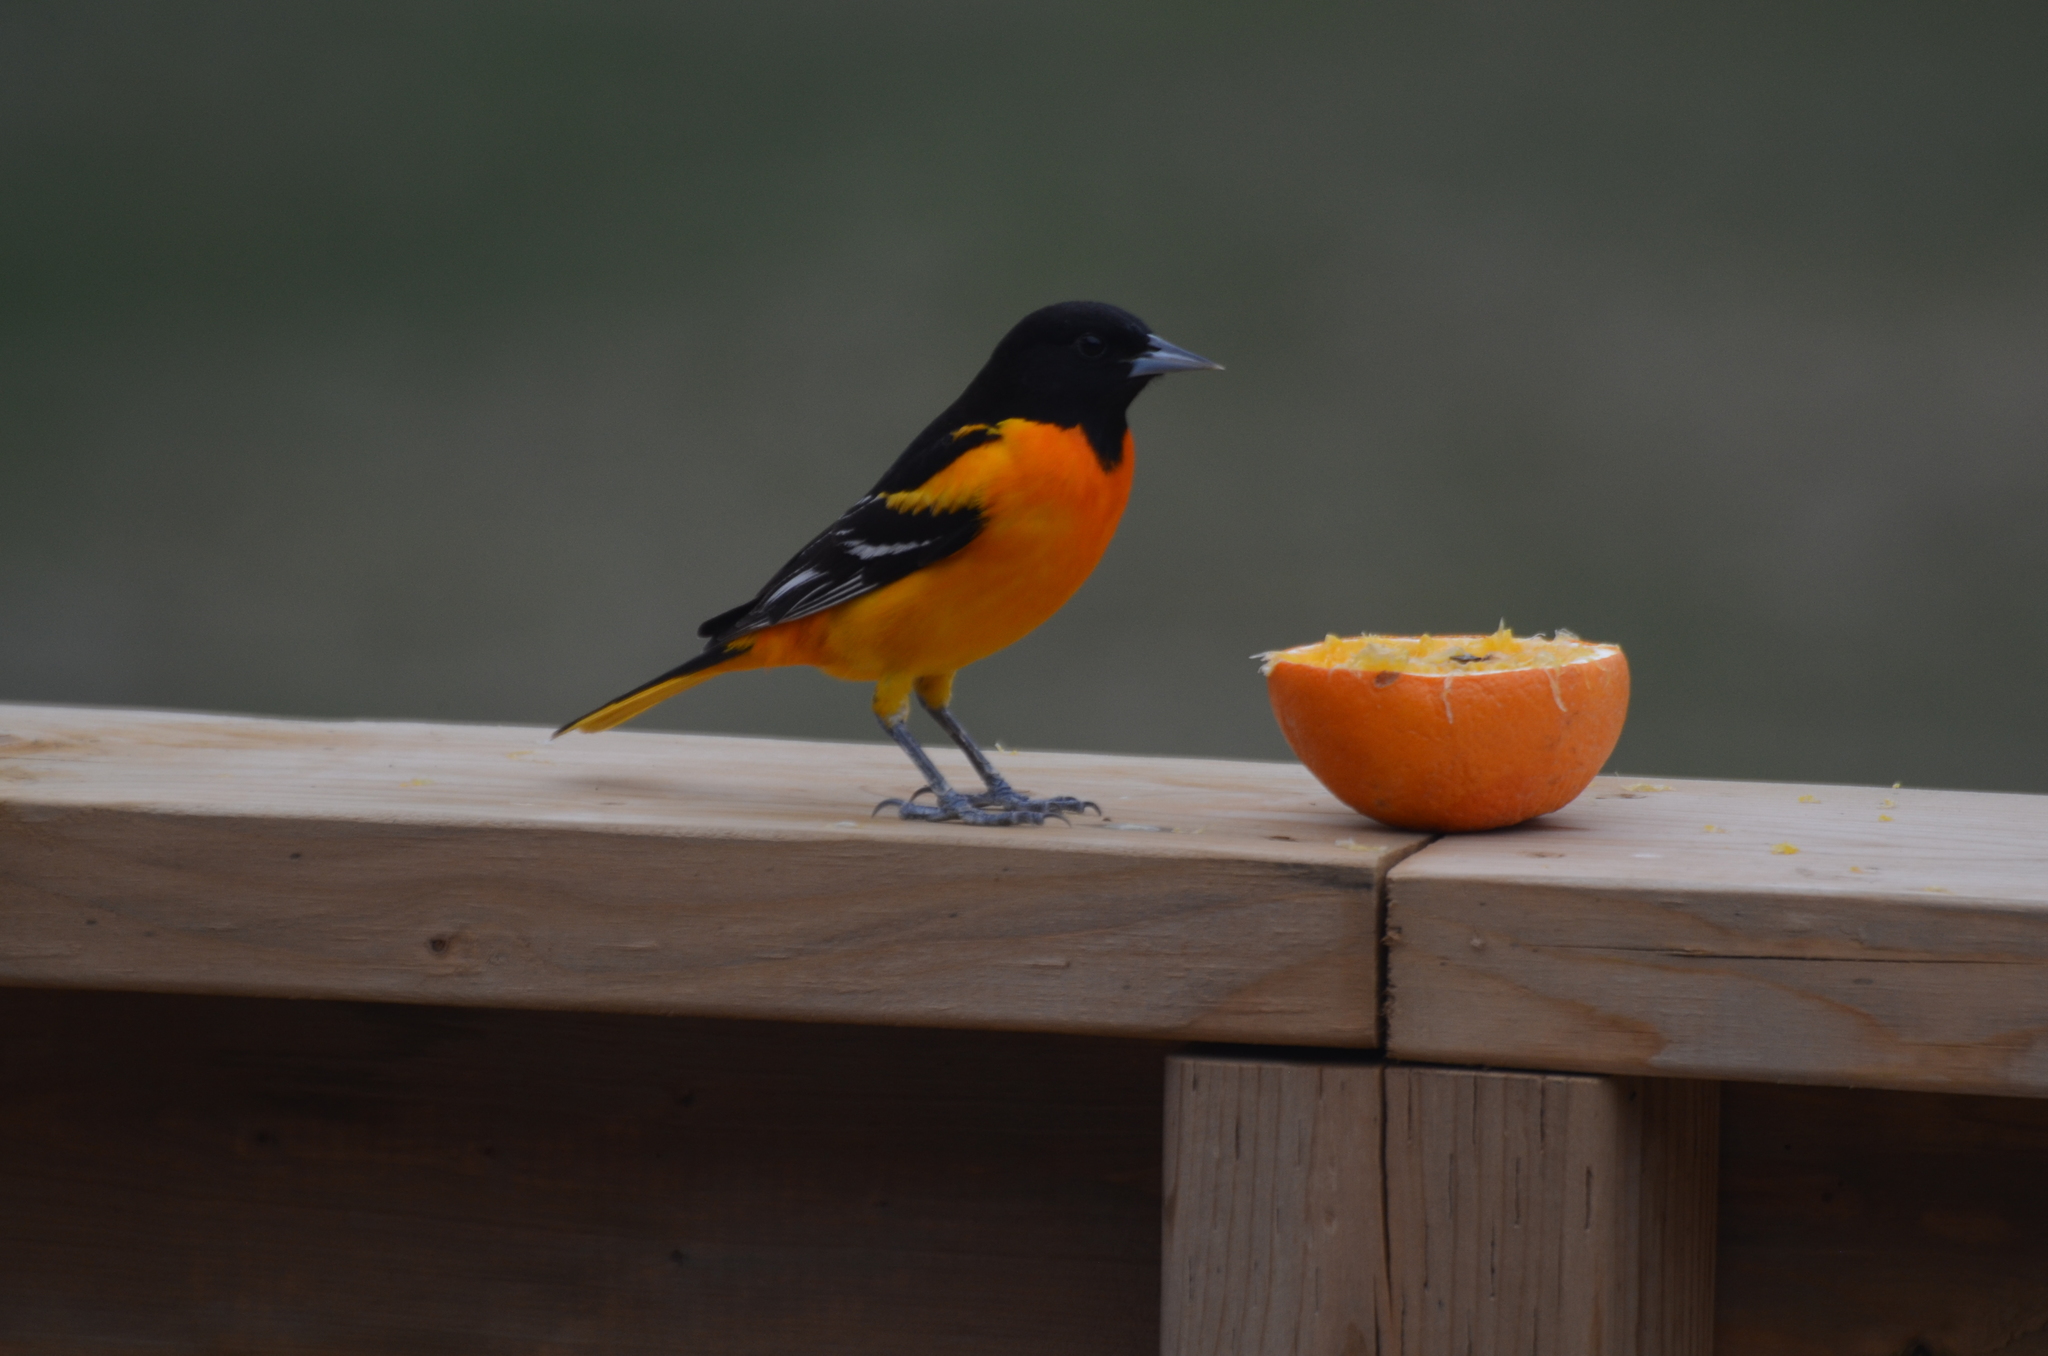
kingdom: Animalia
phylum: Chordata
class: Aves
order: Passeriformes
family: Icteridae
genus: Icterus
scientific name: Icterus galbula
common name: Baltimore oriole
